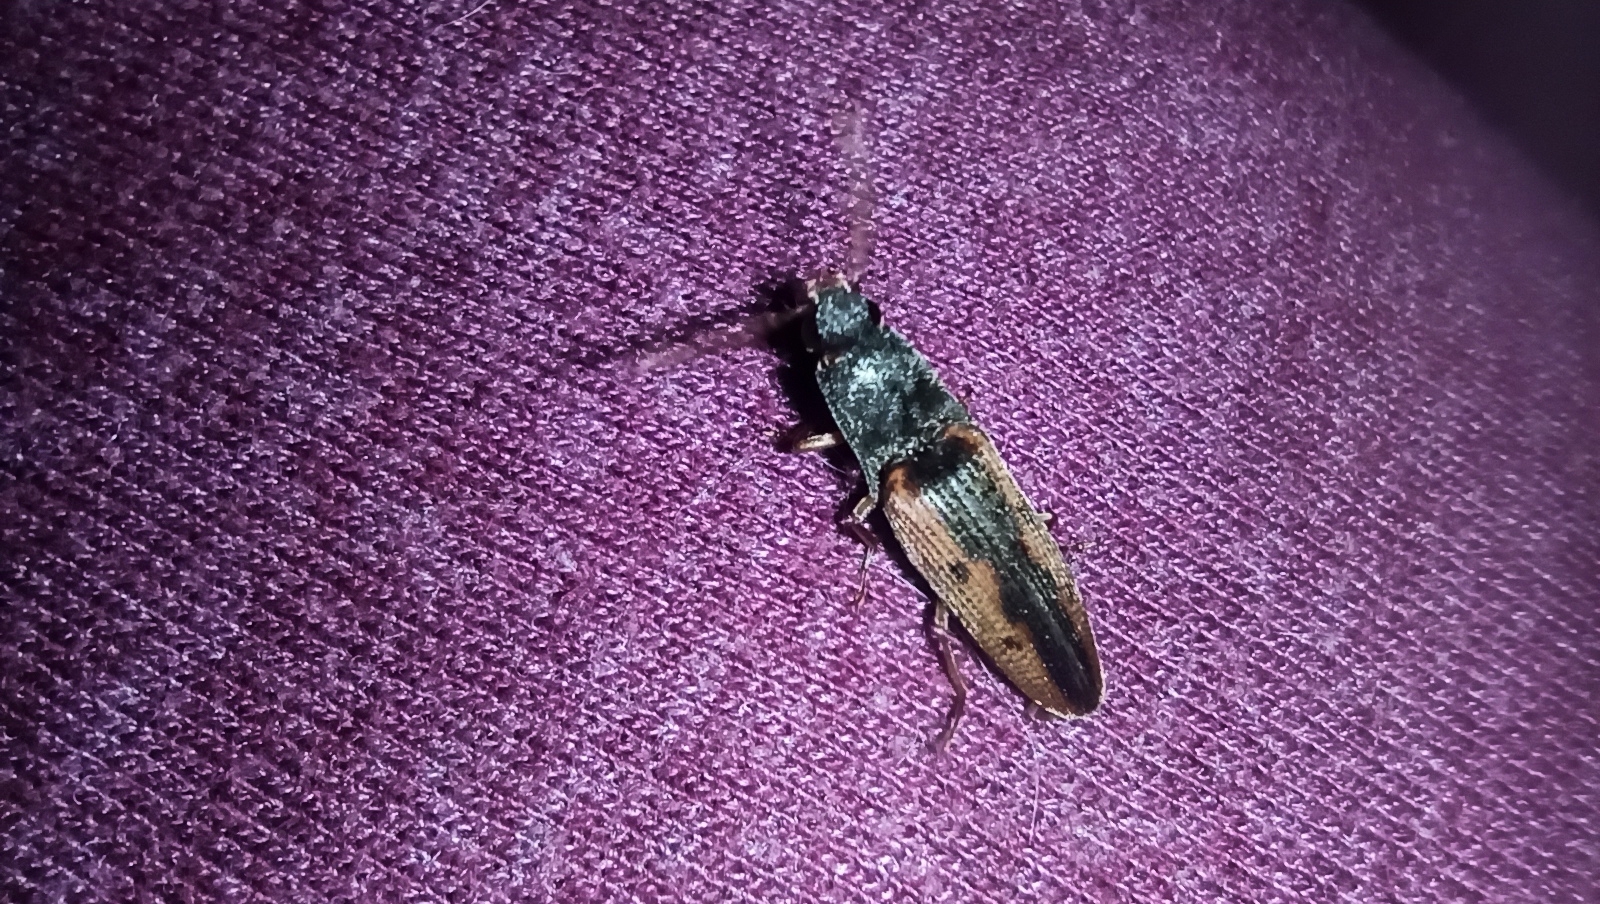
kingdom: Animalia
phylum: Arthropoda
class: Insecta
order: Coleoptera
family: Elateridae
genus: Monocrepidius
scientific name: Monocrepidius
